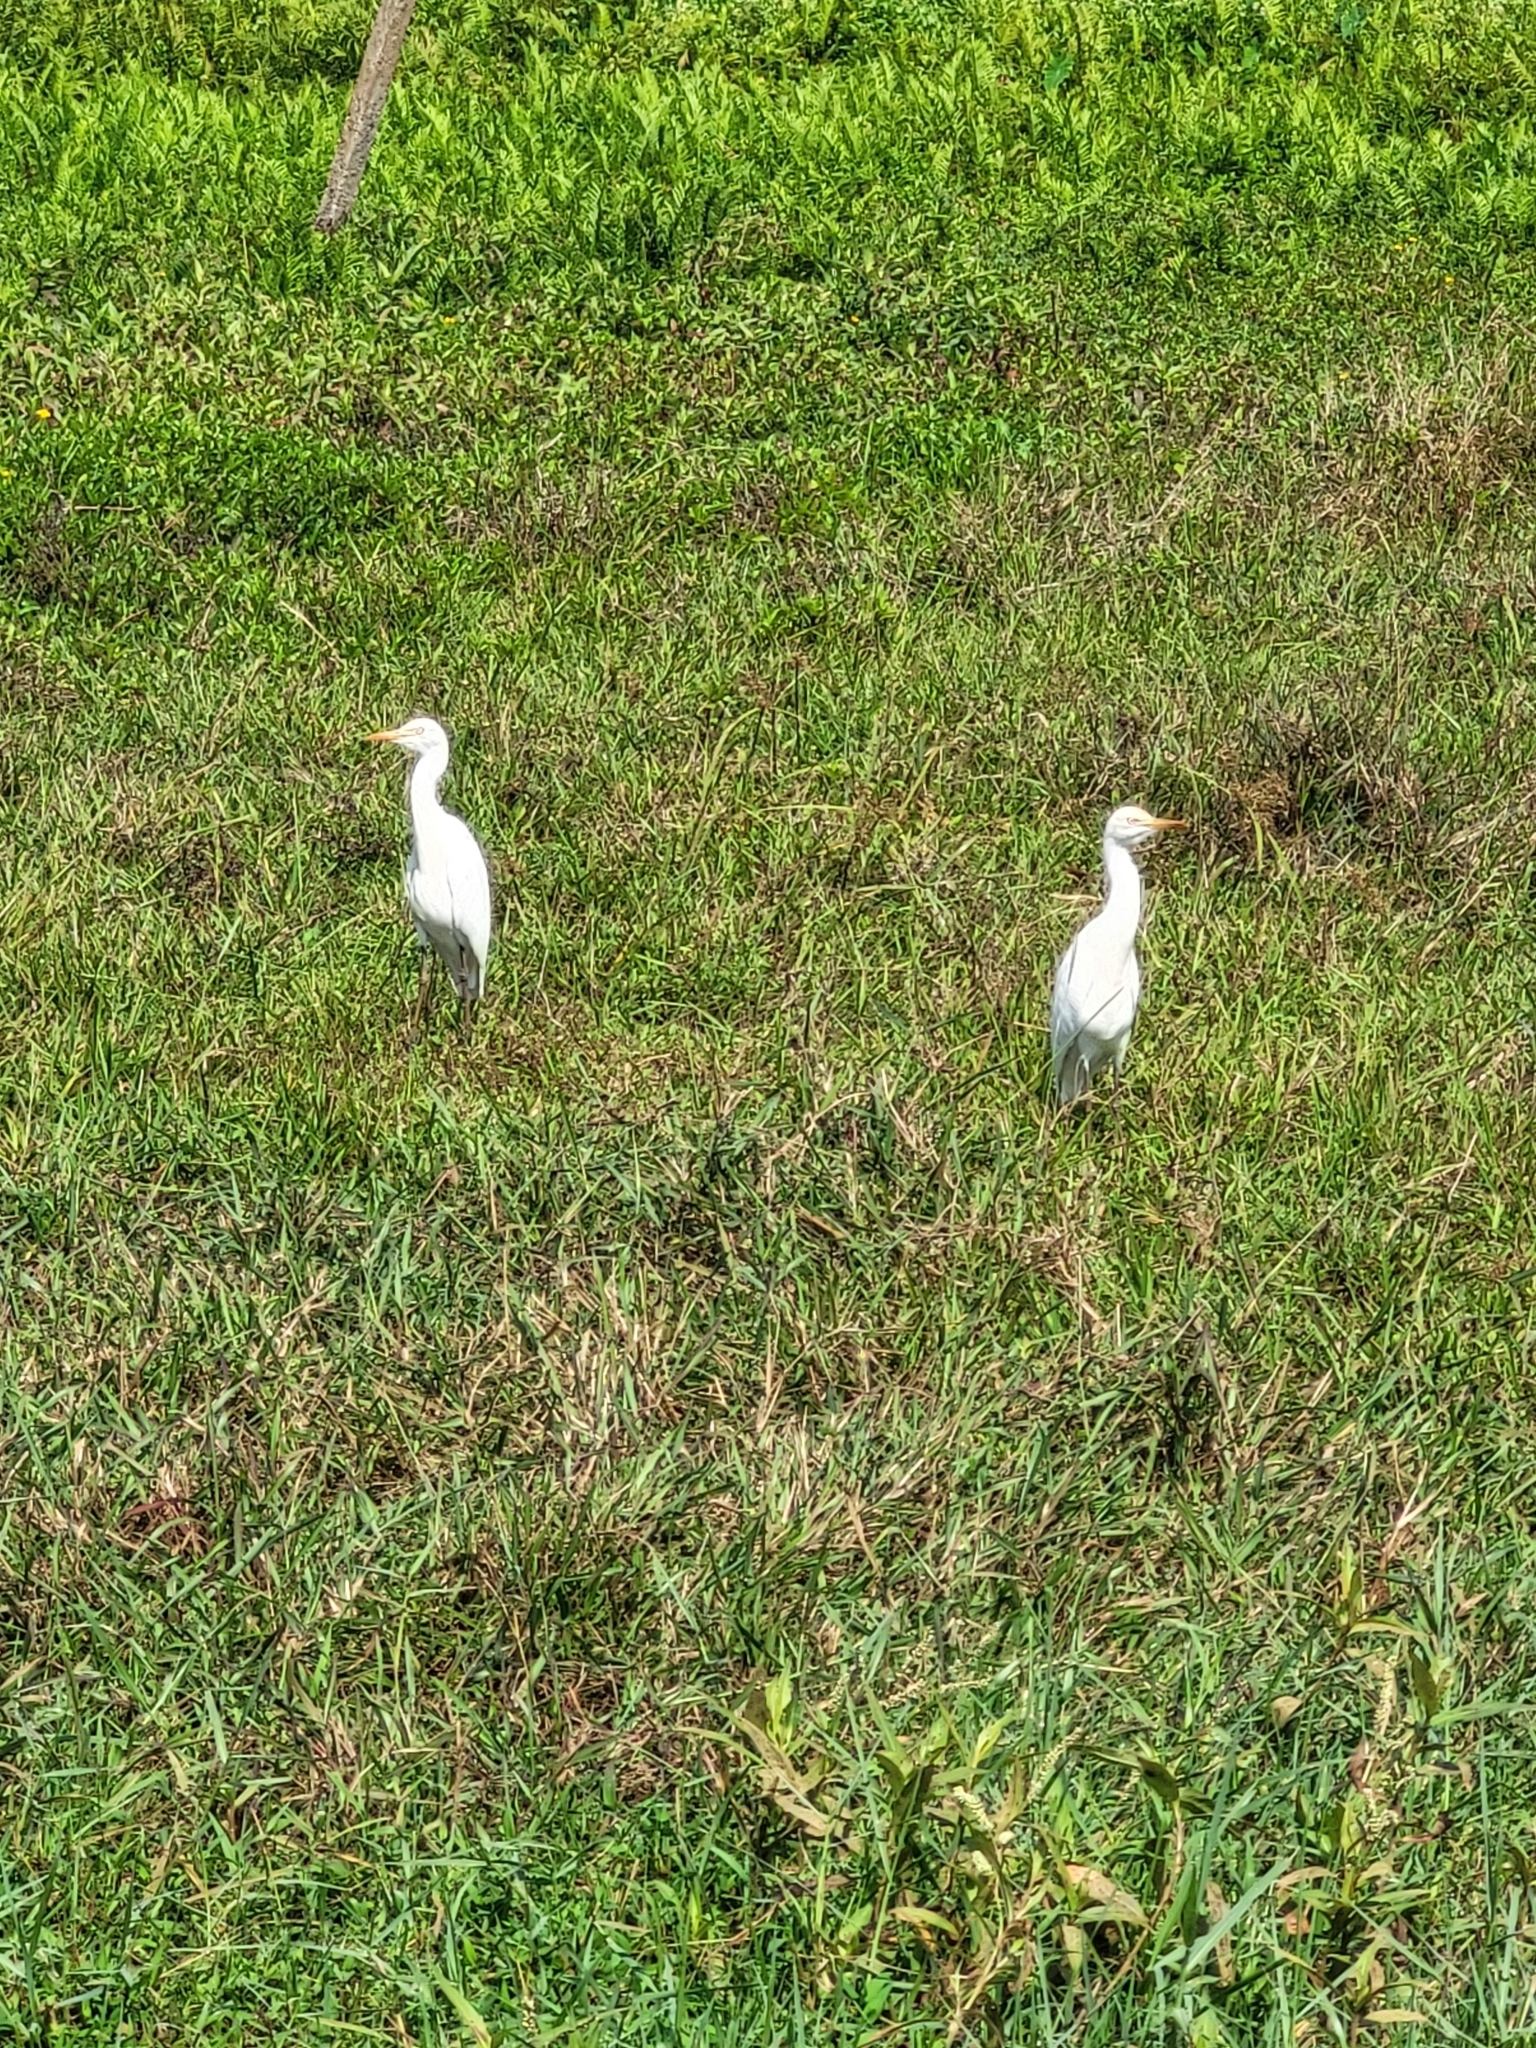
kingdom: Animalia
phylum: Chordata
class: Aves
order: Pelecaniformes
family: Ardeidae
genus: Bubulcus
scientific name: Bubulcus coromandus
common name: Eastern cattle egret
